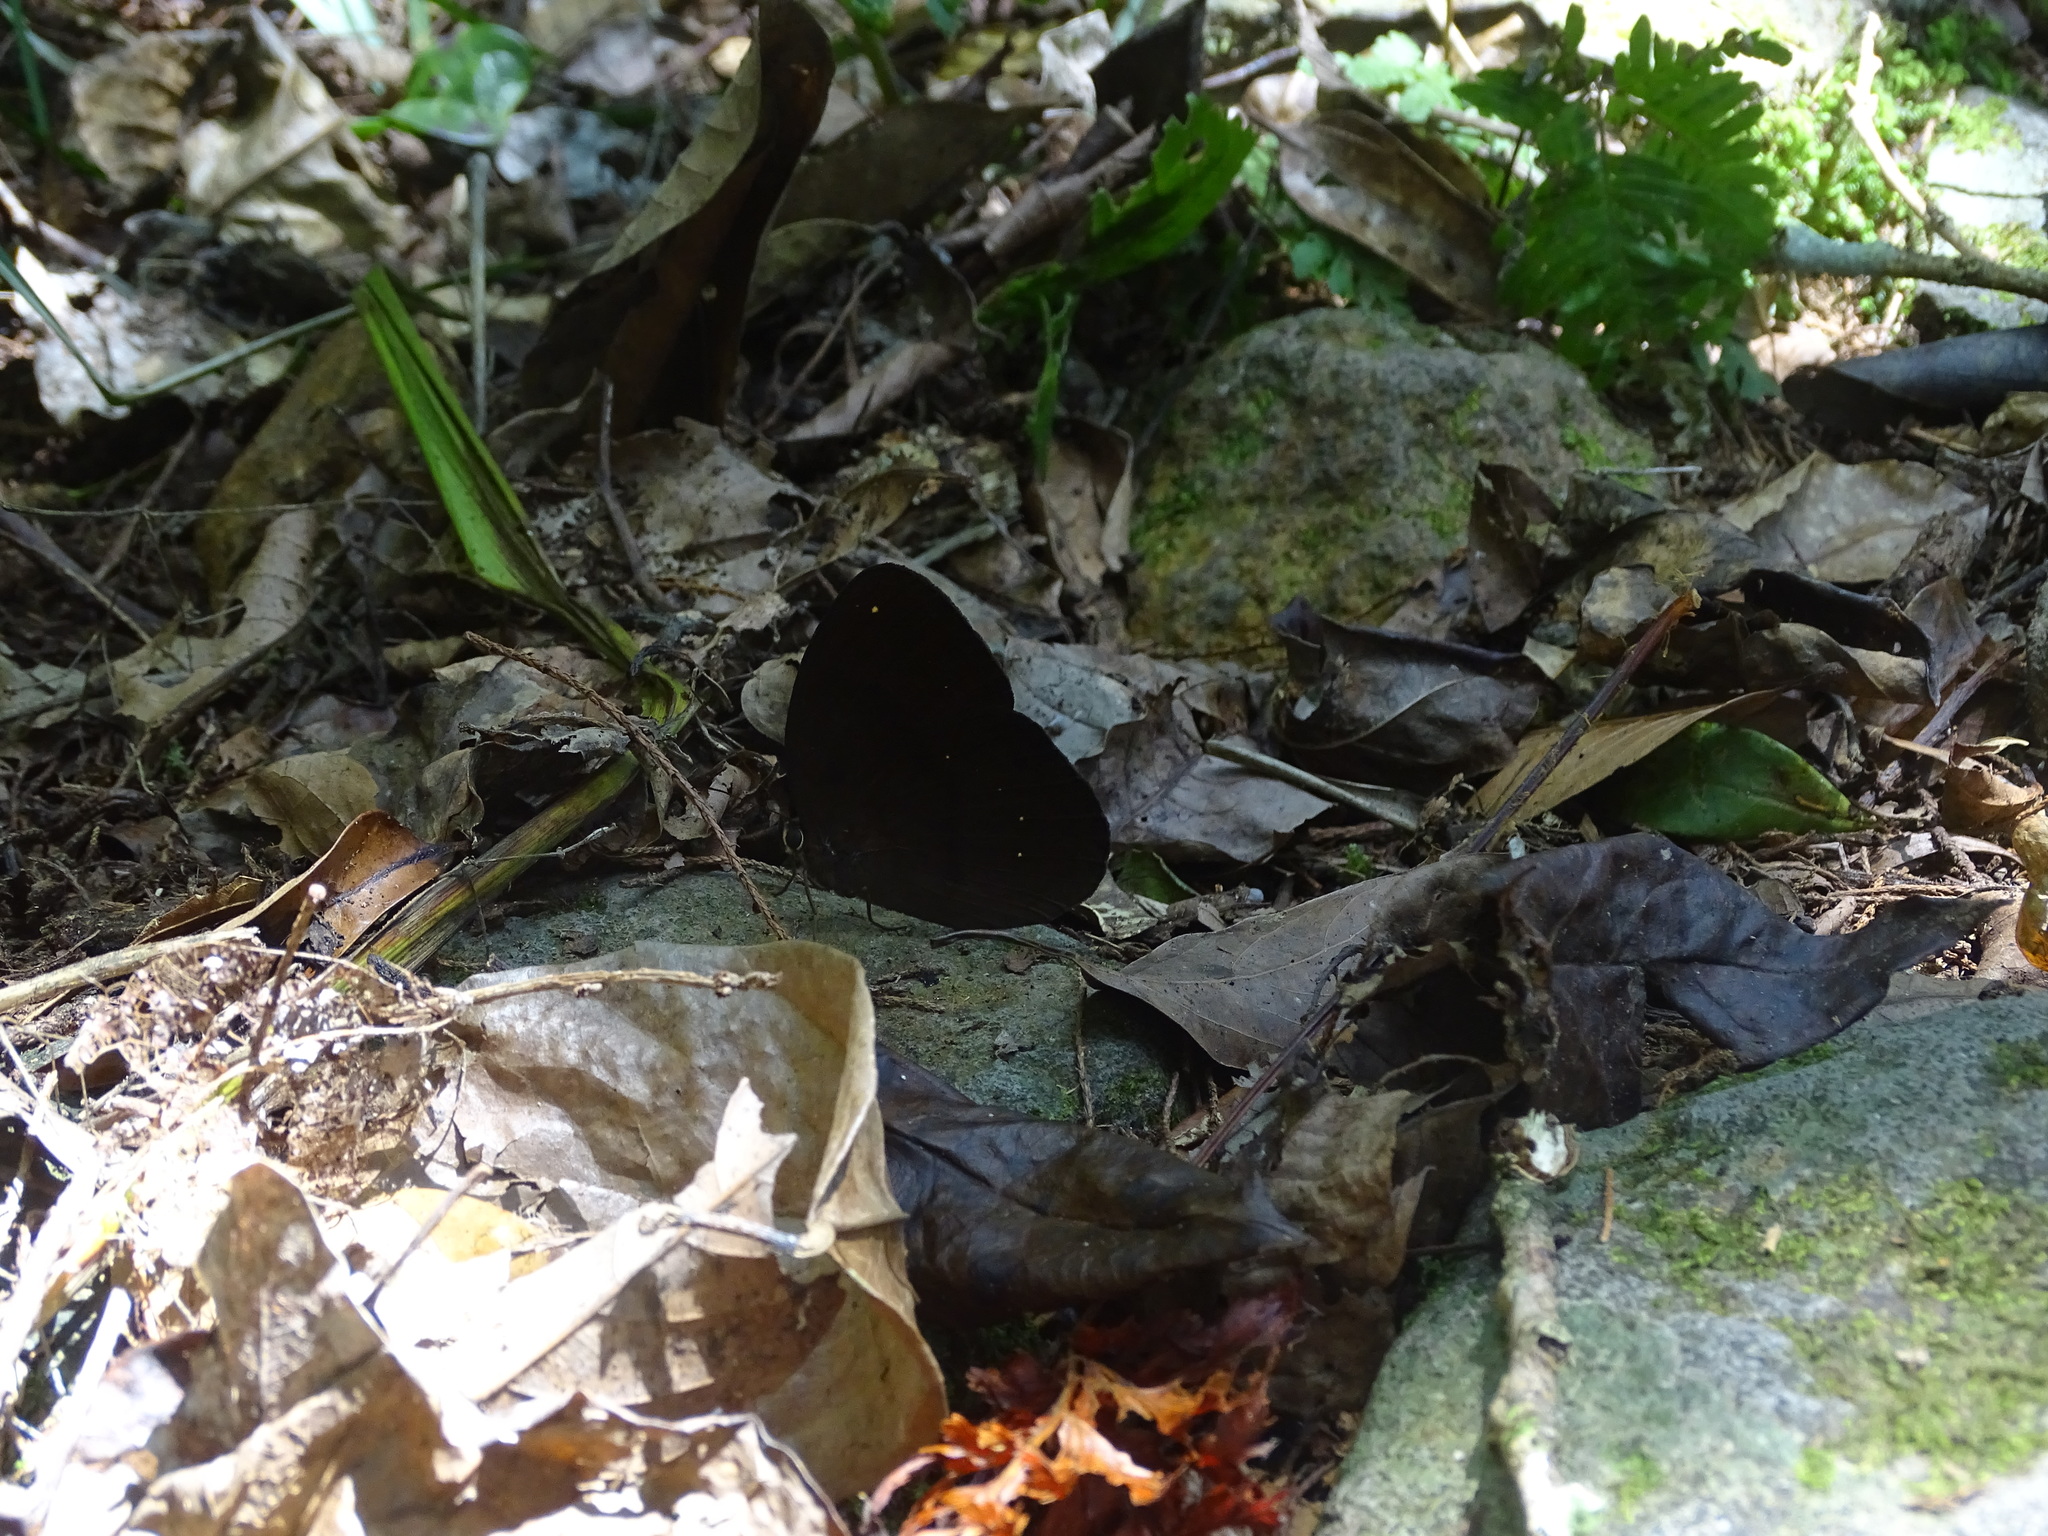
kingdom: Animalia
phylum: Arthropoda
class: Insecta
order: Lepidoptera
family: Nymphalidae
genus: Faunis
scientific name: Faunis canens
